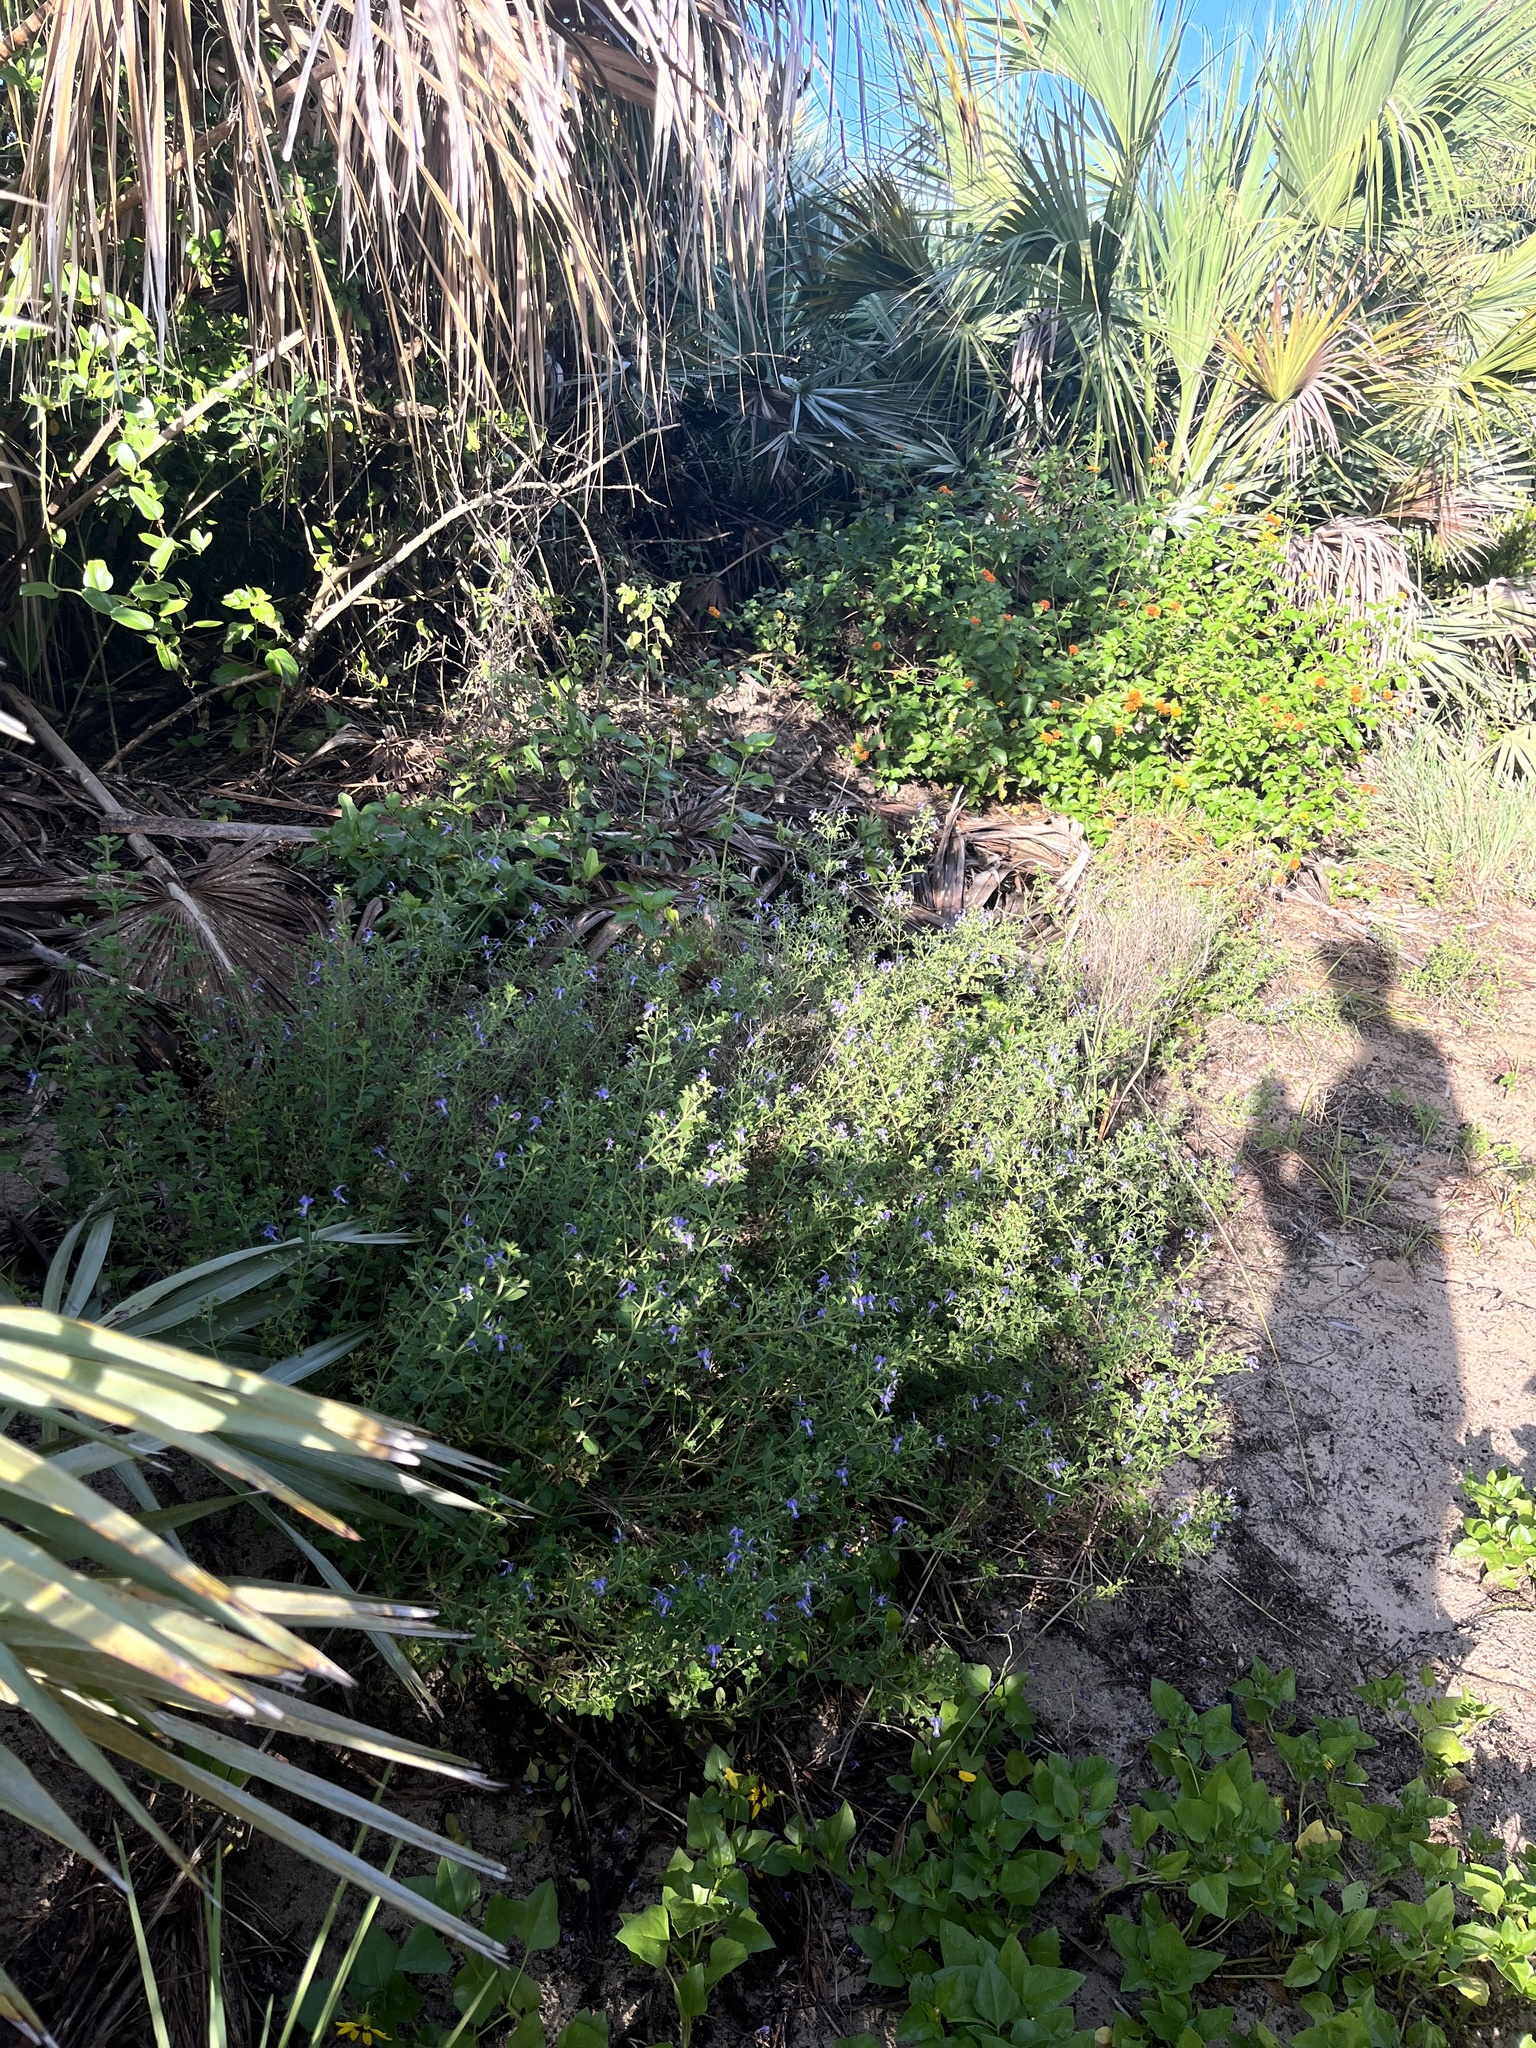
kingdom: Plantae
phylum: Tracheophyta
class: Magnoliopsida
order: Lamiales
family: Lamiaceae
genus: Trichostema
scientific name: Trichostema
